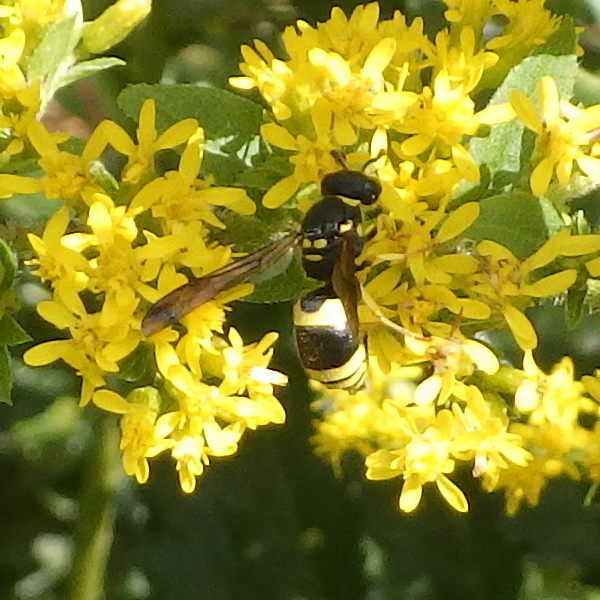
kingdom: Animalia
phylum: Arthropoda
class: Insecta
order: Hymenoptera
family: Vespidae
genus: Ancistrocerus
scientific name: Ancistrocerus gazella
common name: European tube wasp
